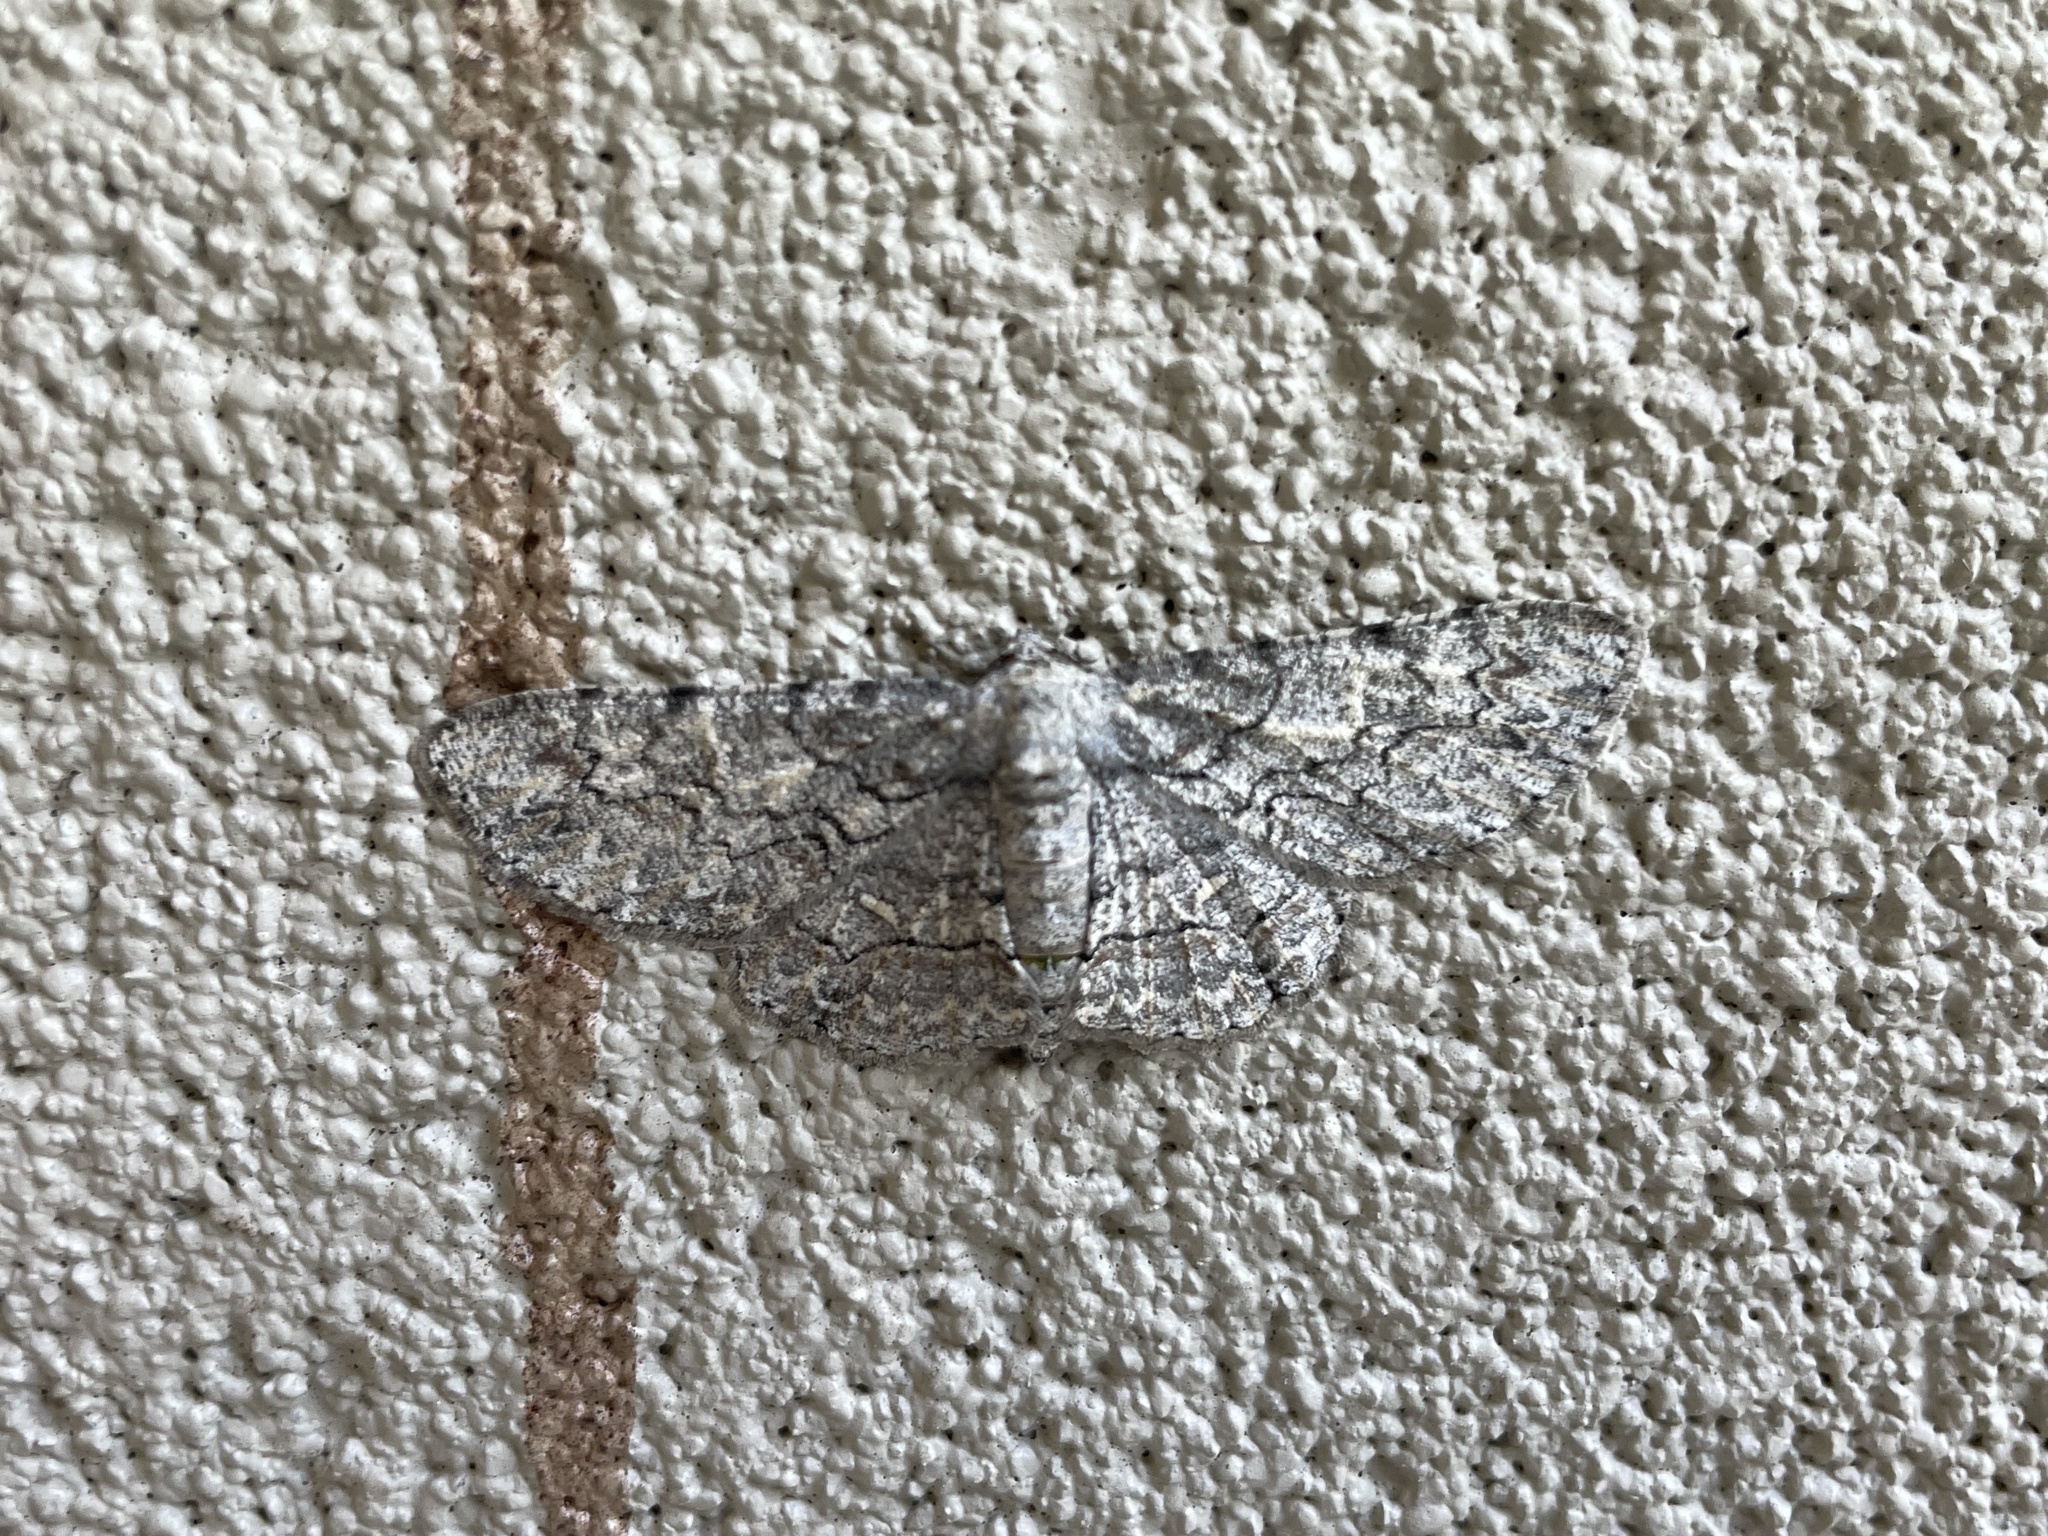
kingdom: Animalia
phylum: Arthropoda
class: Insecta
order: Lepidoptera
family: Geometridae
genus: Iridopsis
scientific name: Iridopsis defectaria
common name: Brown-shaded gray
